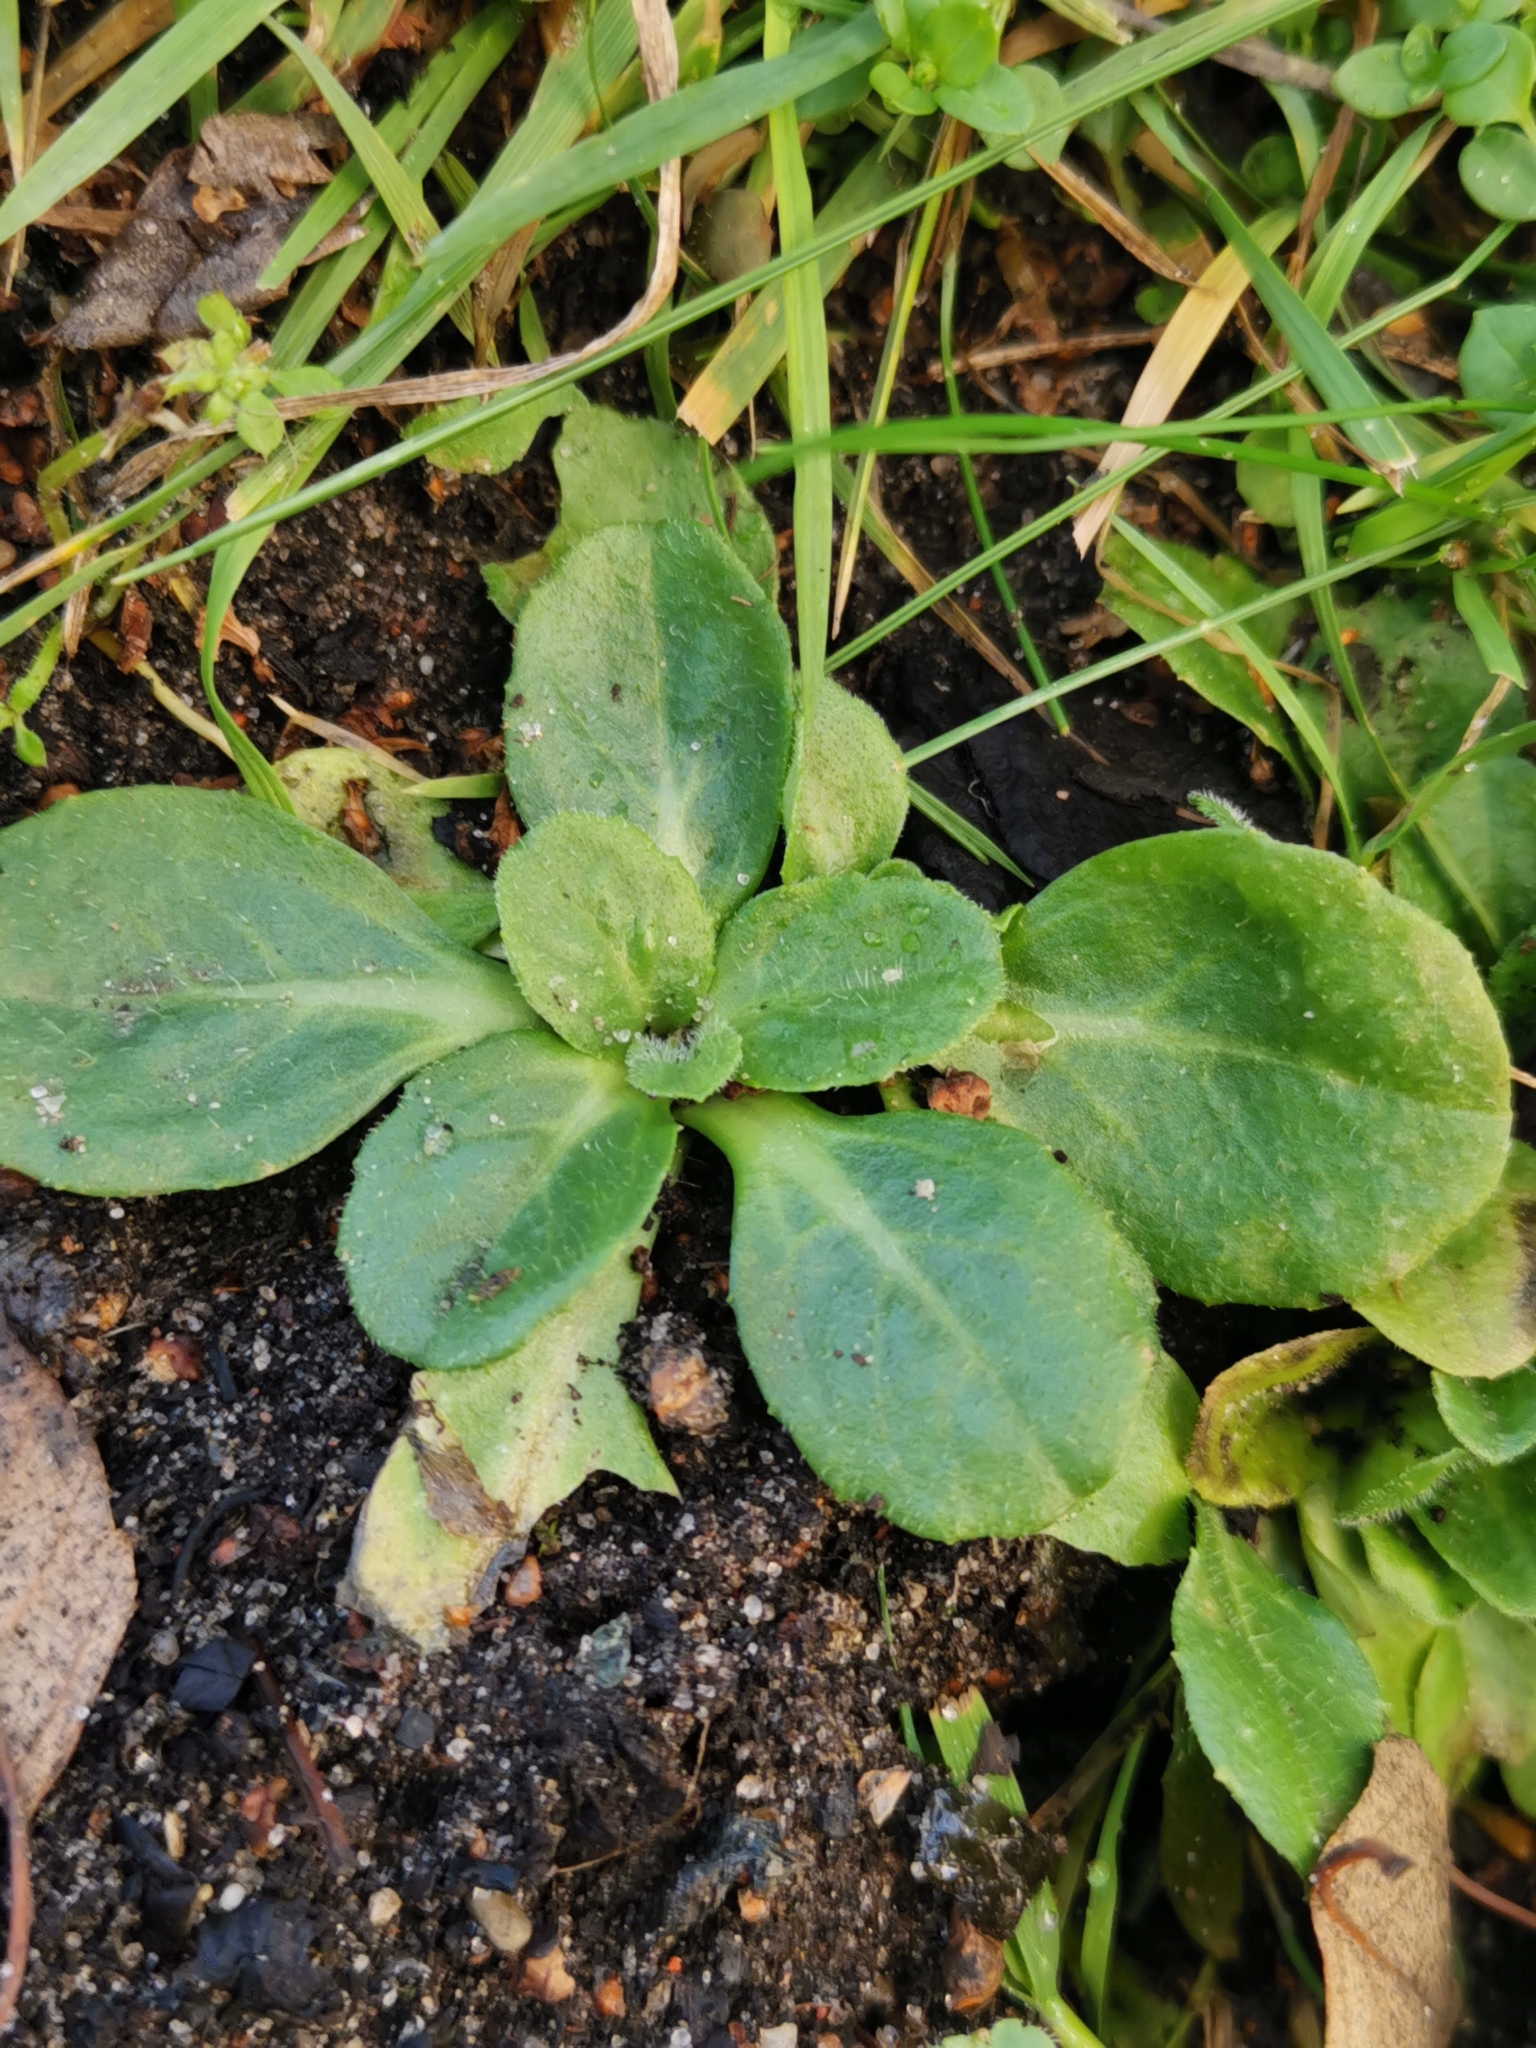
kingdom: Plantae
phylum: Tracheophyta
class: Magnoliopsida
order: Asterales
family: Asteraceae
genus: Bellis
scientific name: Bellis perennis
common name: Lawndaisy
